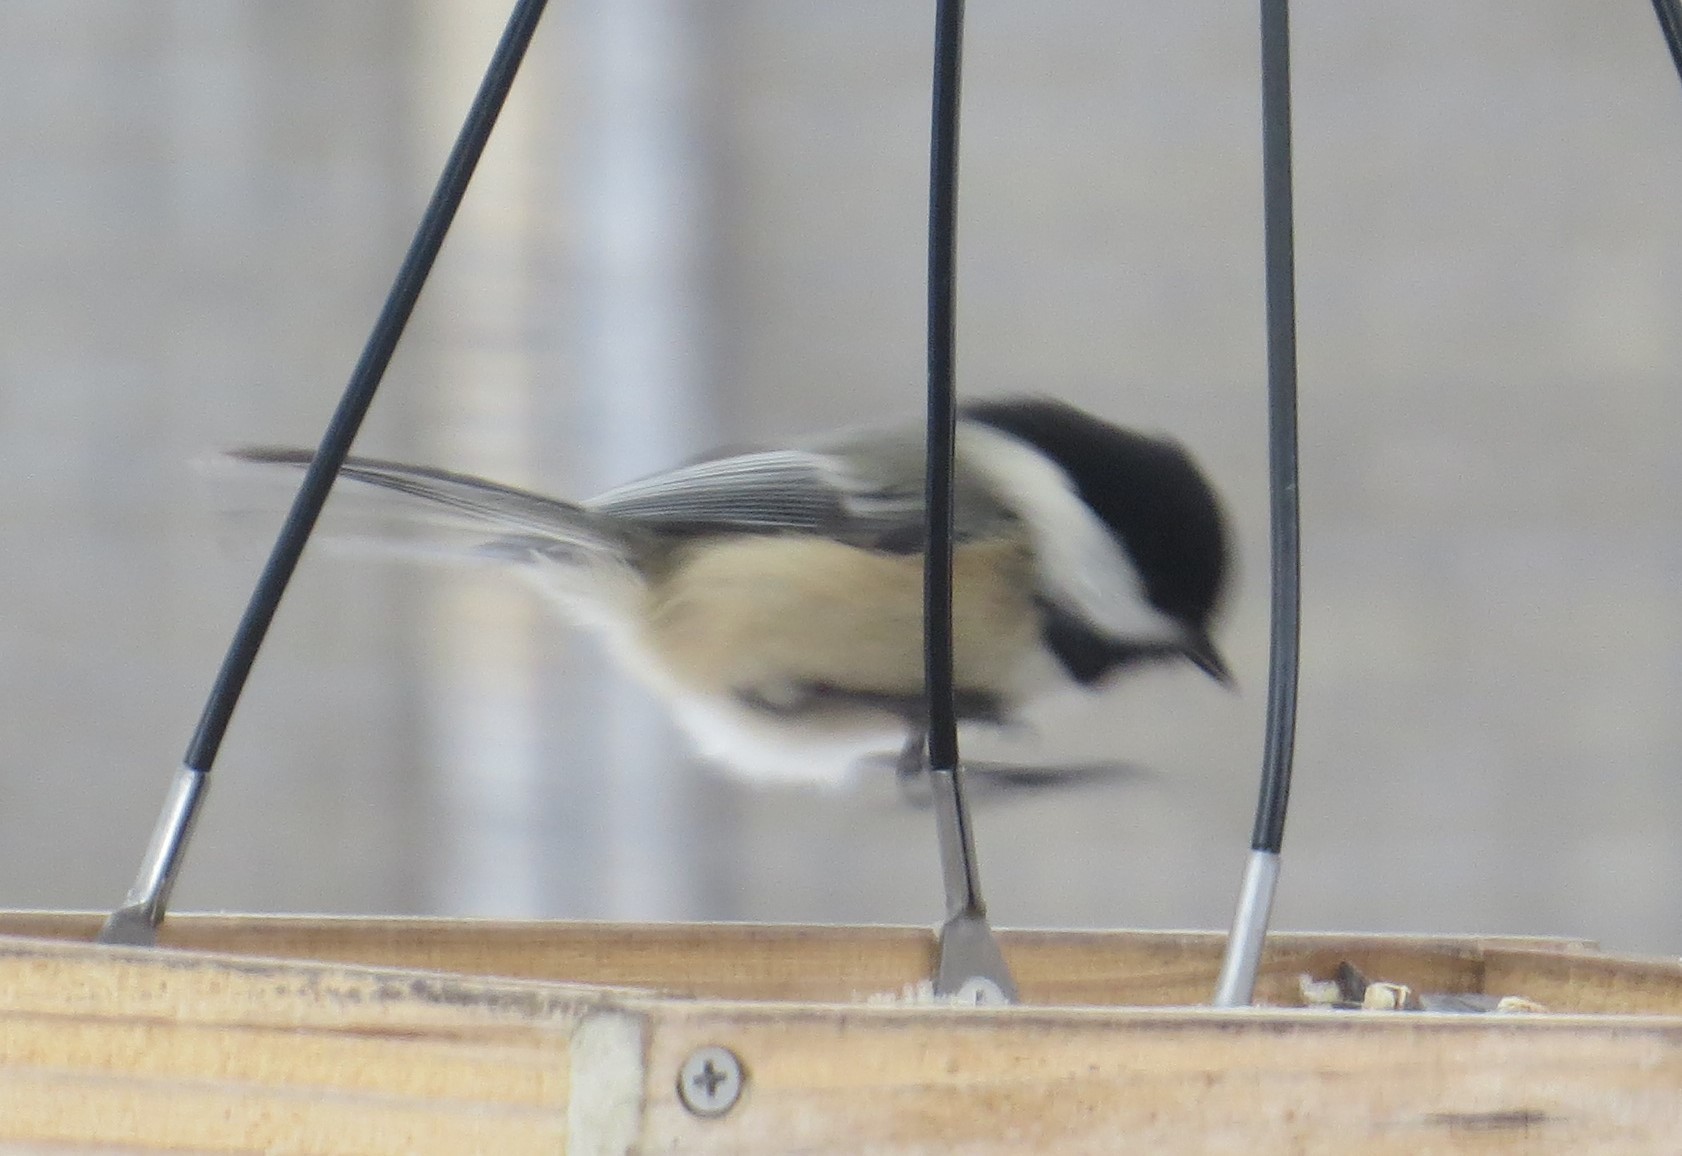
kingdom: Animalia
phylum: Chordata
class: Aves
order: Passeriformes
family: Paridae
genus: Poecile
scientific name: Poecile atricapillus
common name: Black-capped chickadee
